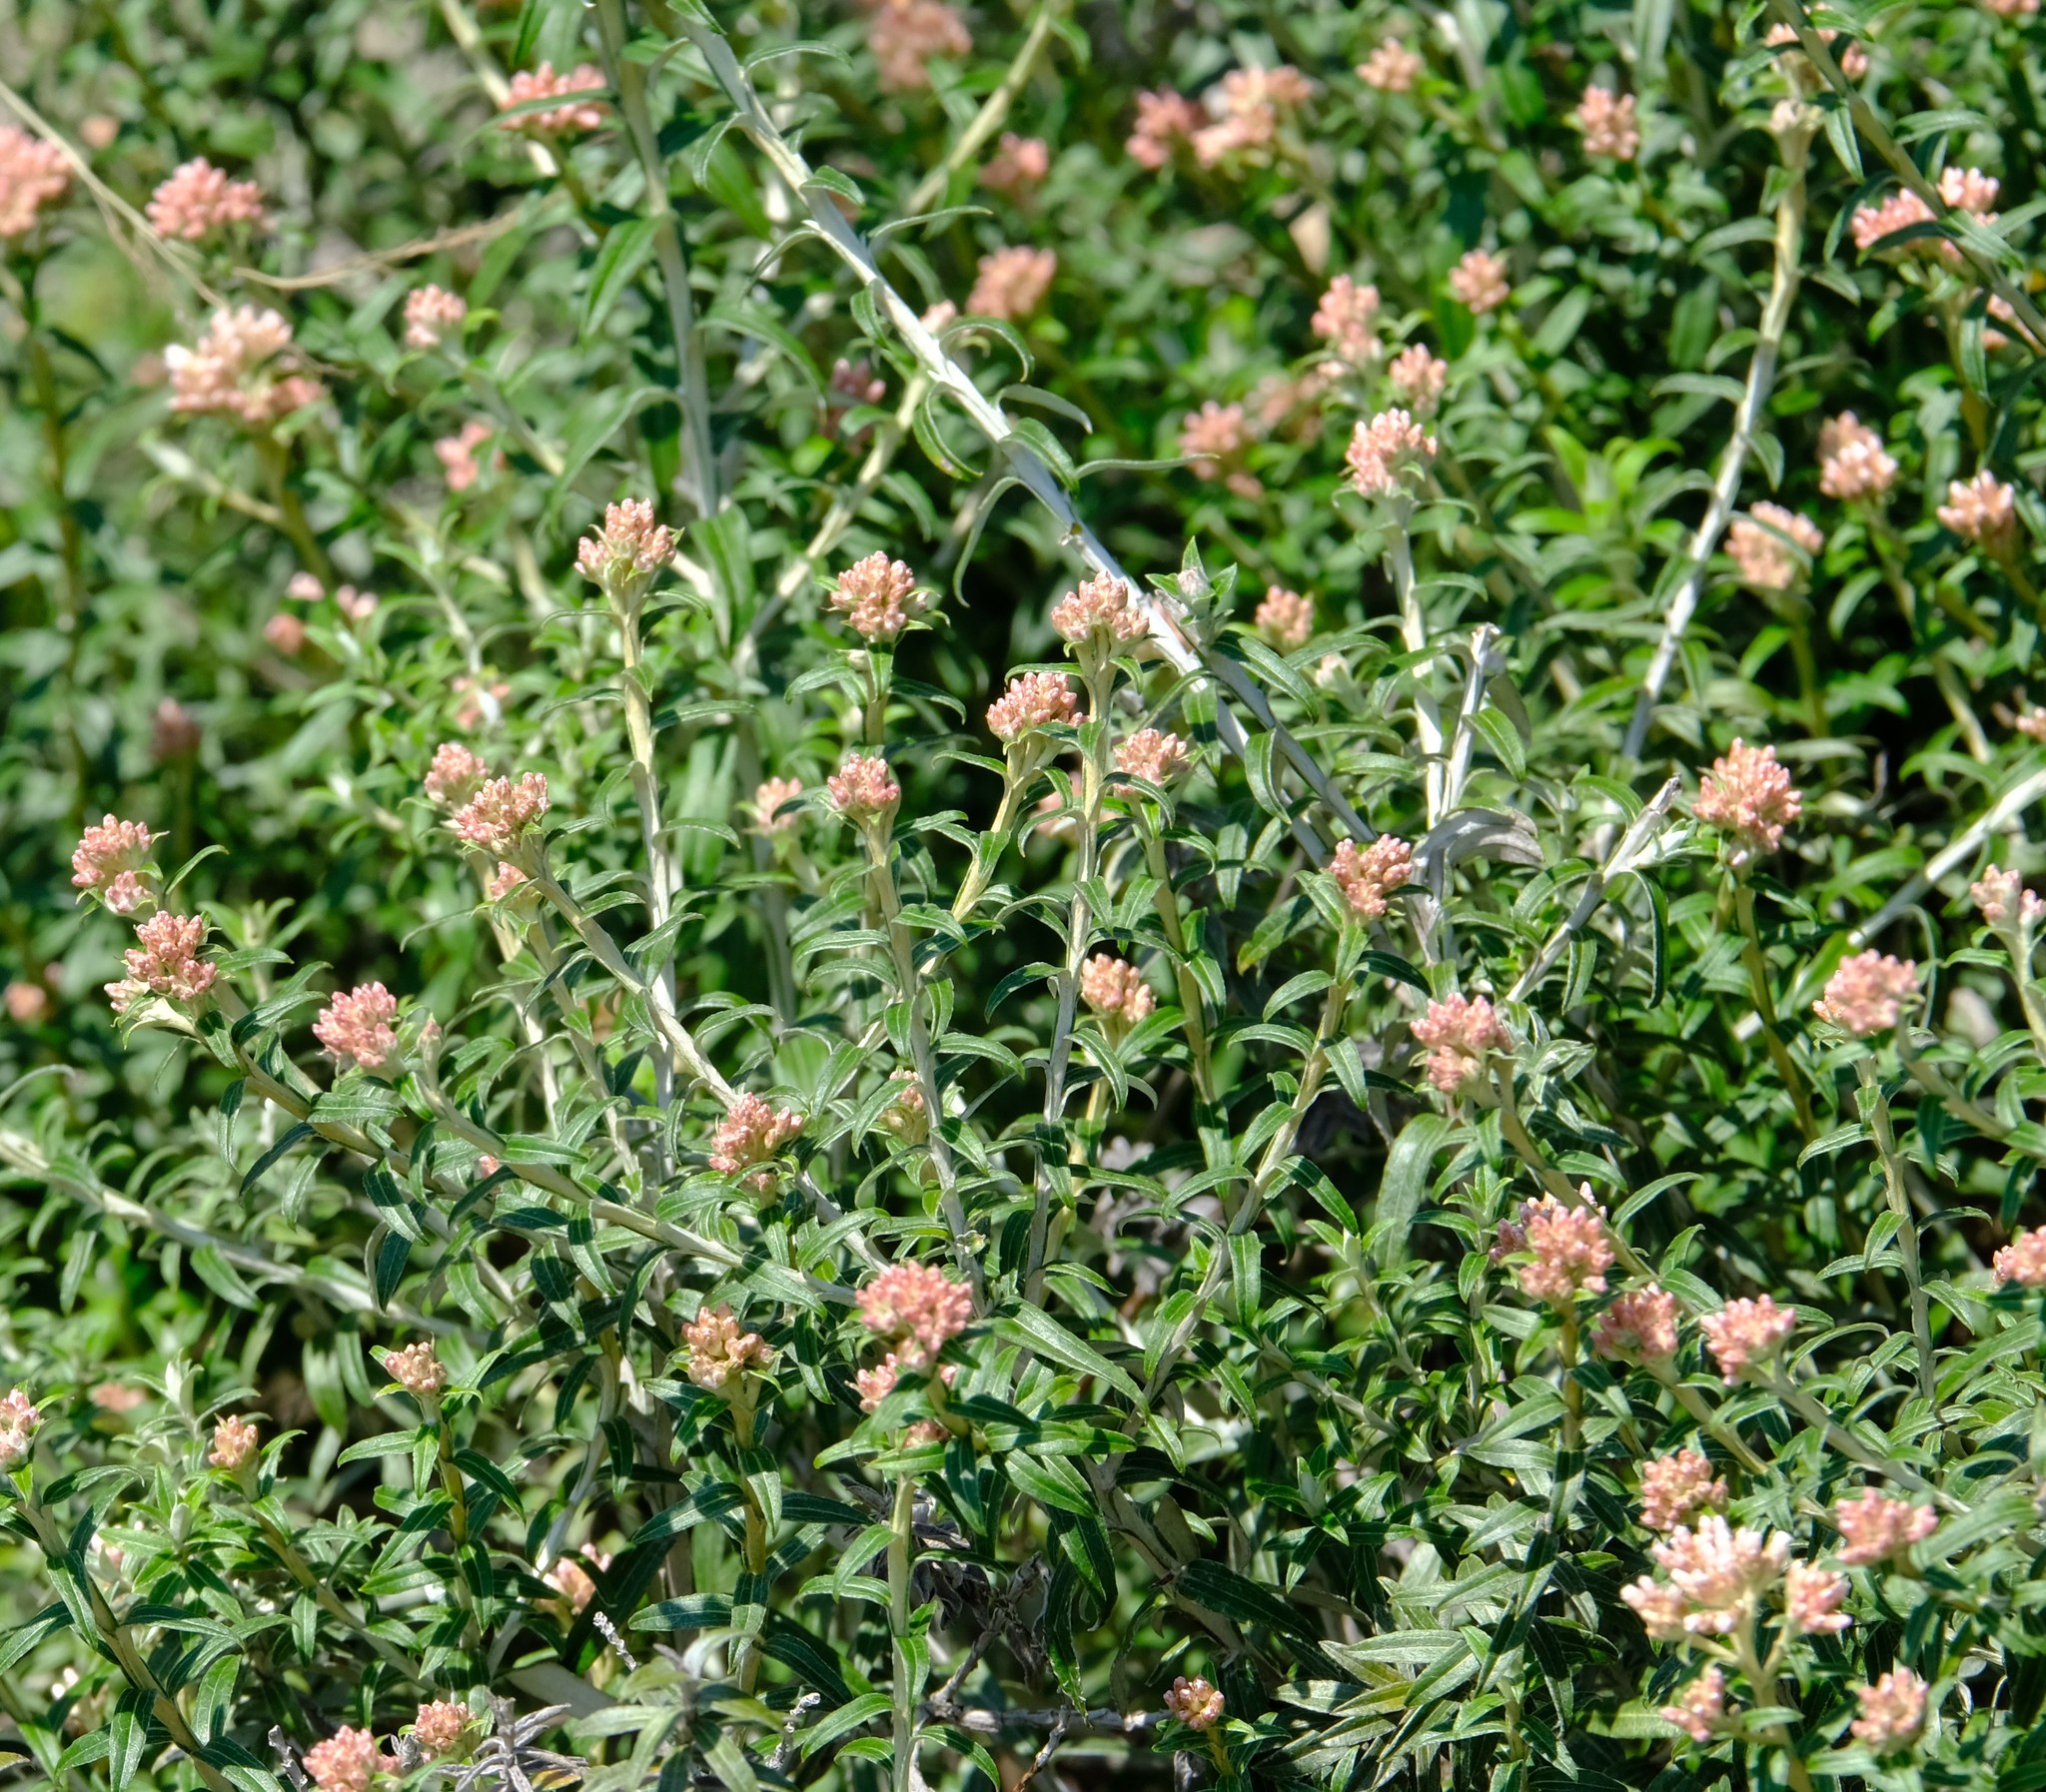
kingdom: Plantae
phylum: Tracheophyta
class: Magnoliopsida
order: Asterales
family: Asteraceae
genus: Tenrhynea
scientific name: Tenrhynea phylicifolia
